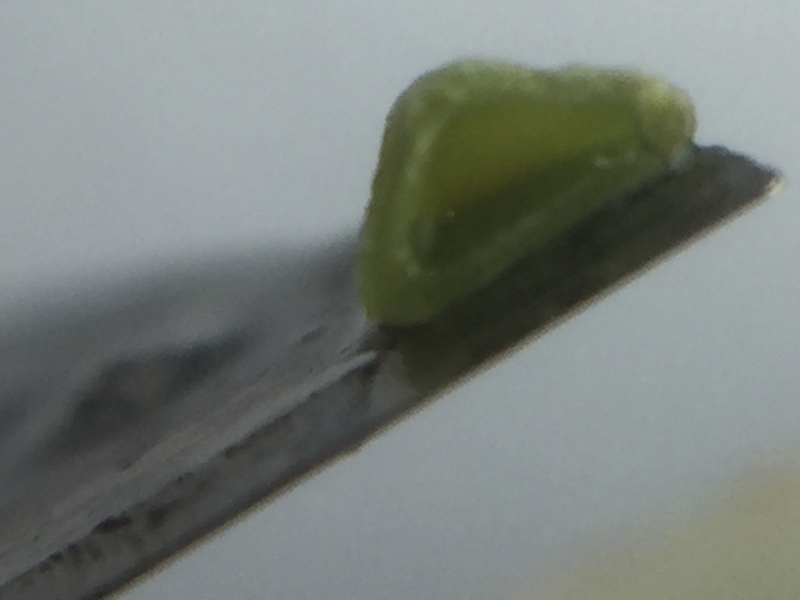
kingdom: Plantae
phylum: Tracheophyta
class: Liliopsida
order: Poales
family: Cyperaceae
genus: Bolboschoenus
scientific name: Bolboschoenus laticarpus
